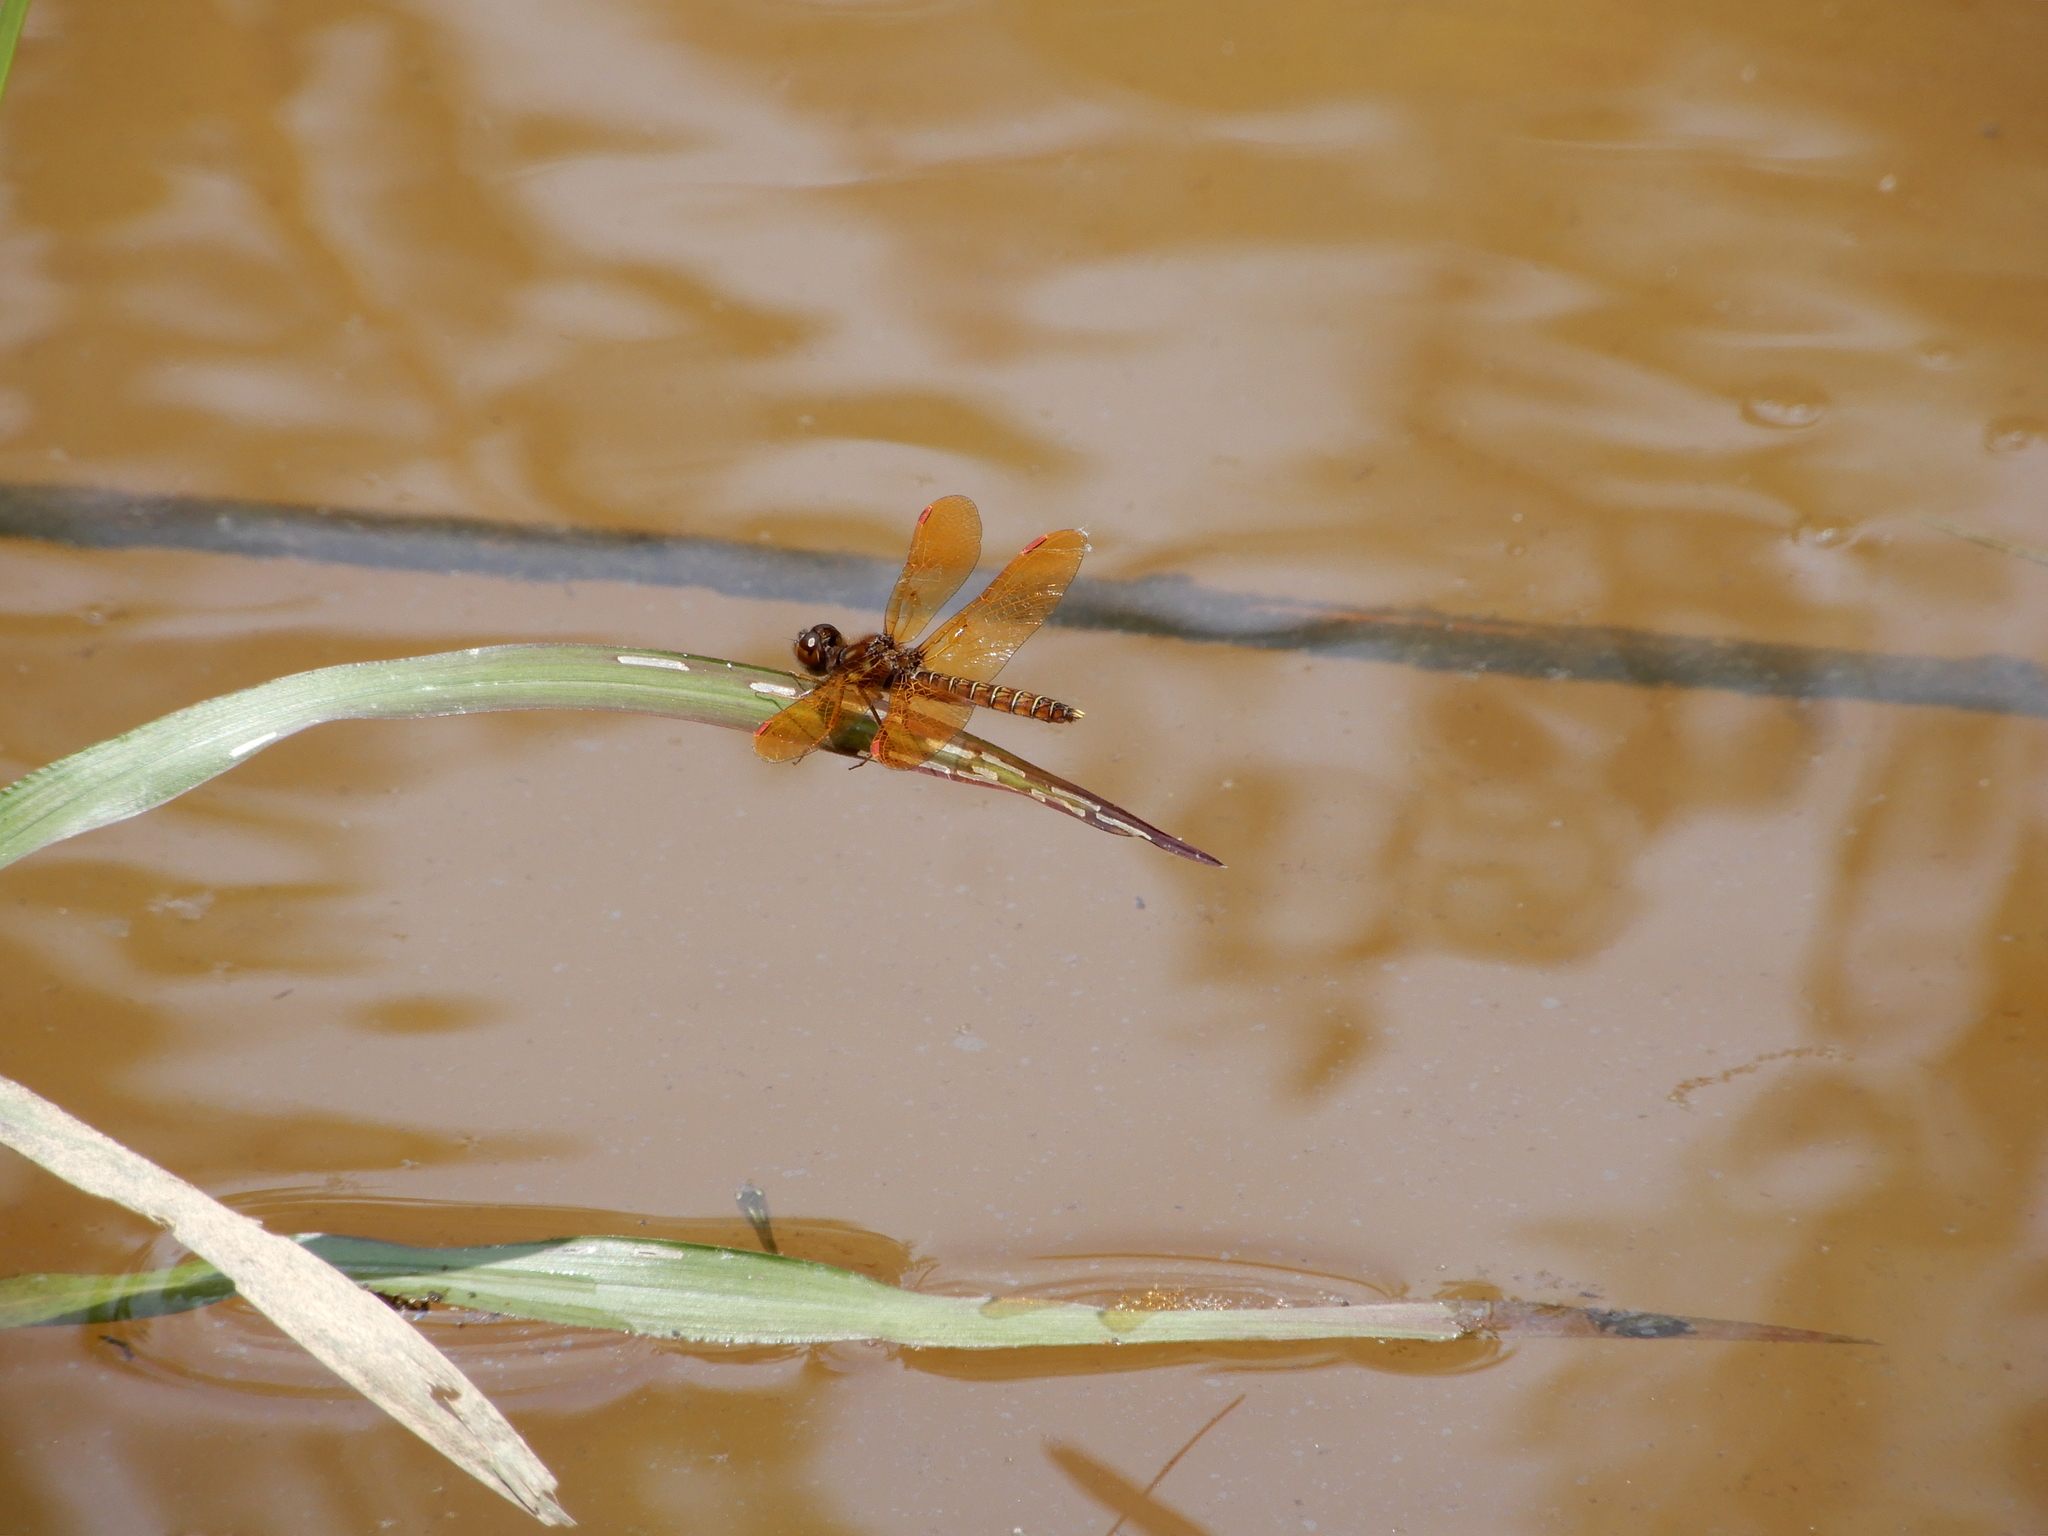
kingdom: Animalia
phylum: Arthropoda
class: Insecta
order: Odonata
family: Libellulidae
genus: Perithemis
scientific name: Perithemis tenera
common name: Eastern amberwing
